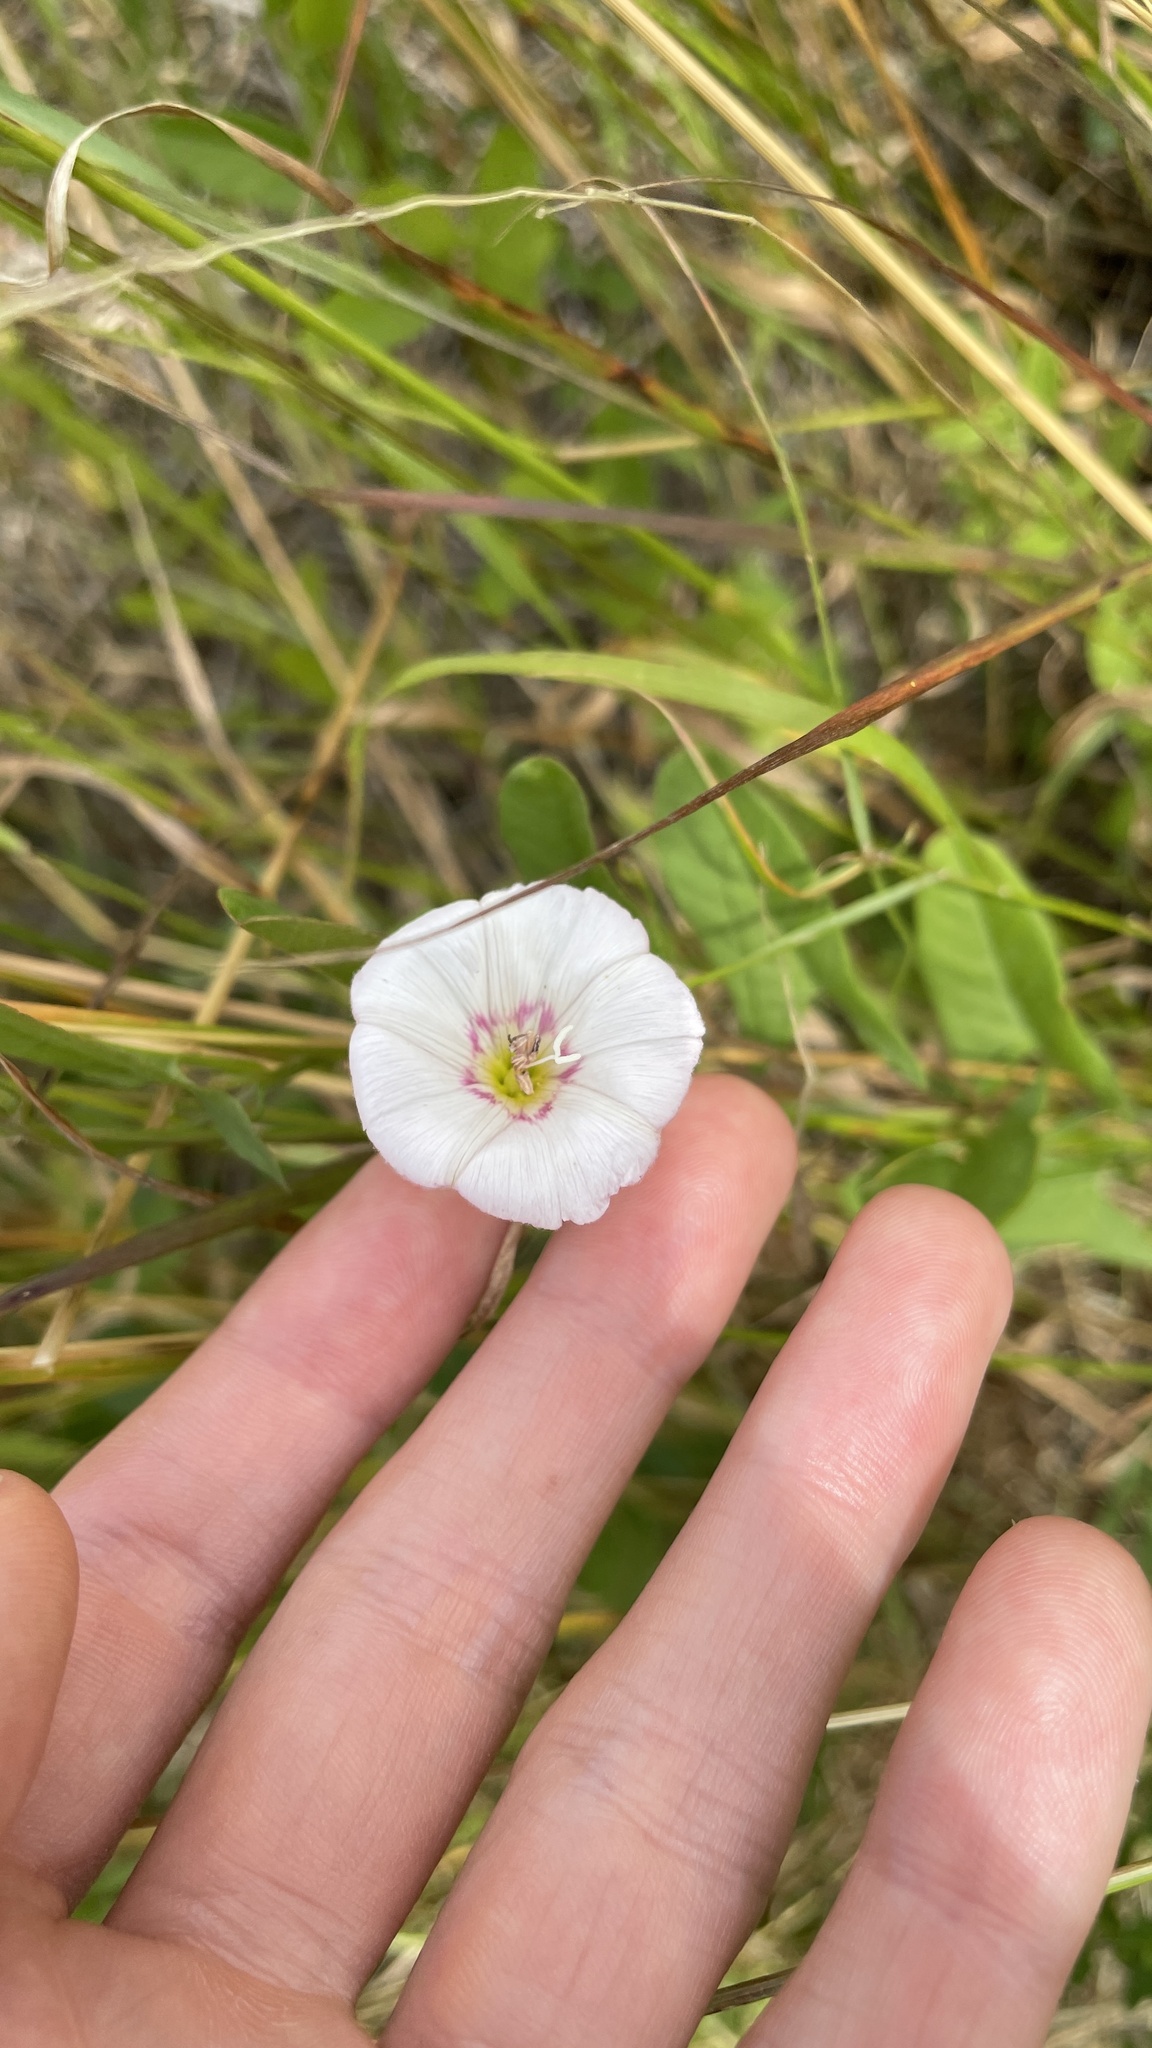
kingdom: Plantae
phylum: Tracheophyta
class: Magnoliopsida
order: Solanales
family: Convolvulaceae
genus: Convolvulus
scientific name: Convolvulus arvensis
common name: Field bindweed
